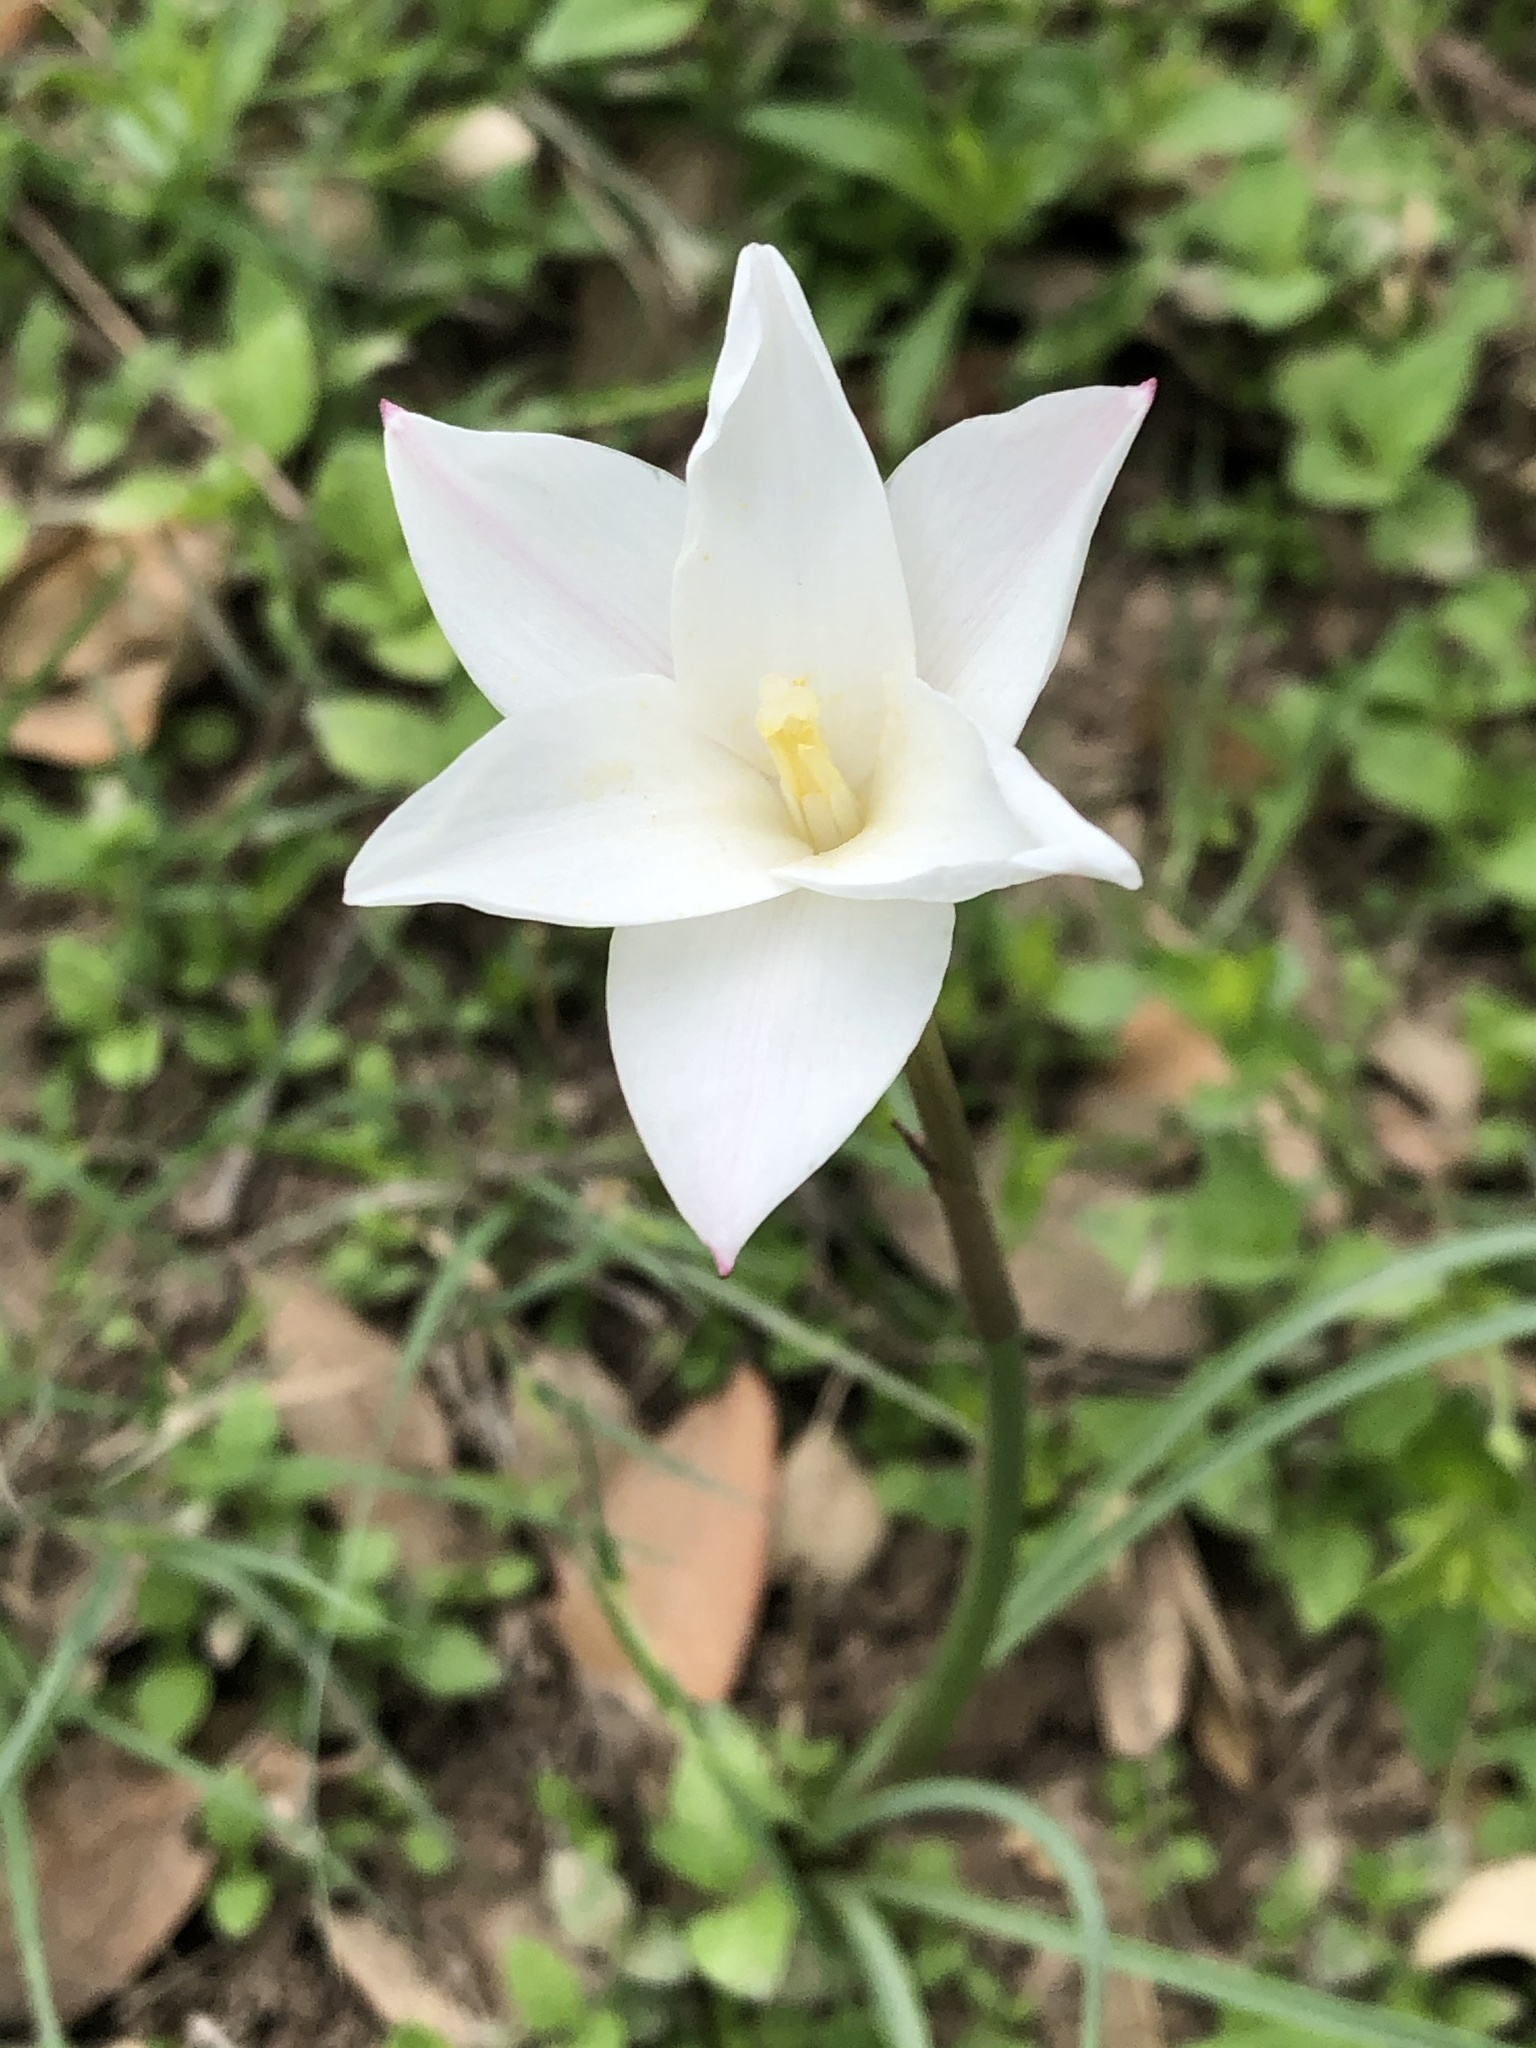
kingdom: Plantae
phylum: Tracheophyta
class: Liliopsida
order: Asparagales
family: Amaryllidaceae
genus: Zephyranthes
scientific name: Zephyranthes chlorosolen
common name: Evening rain-lily
